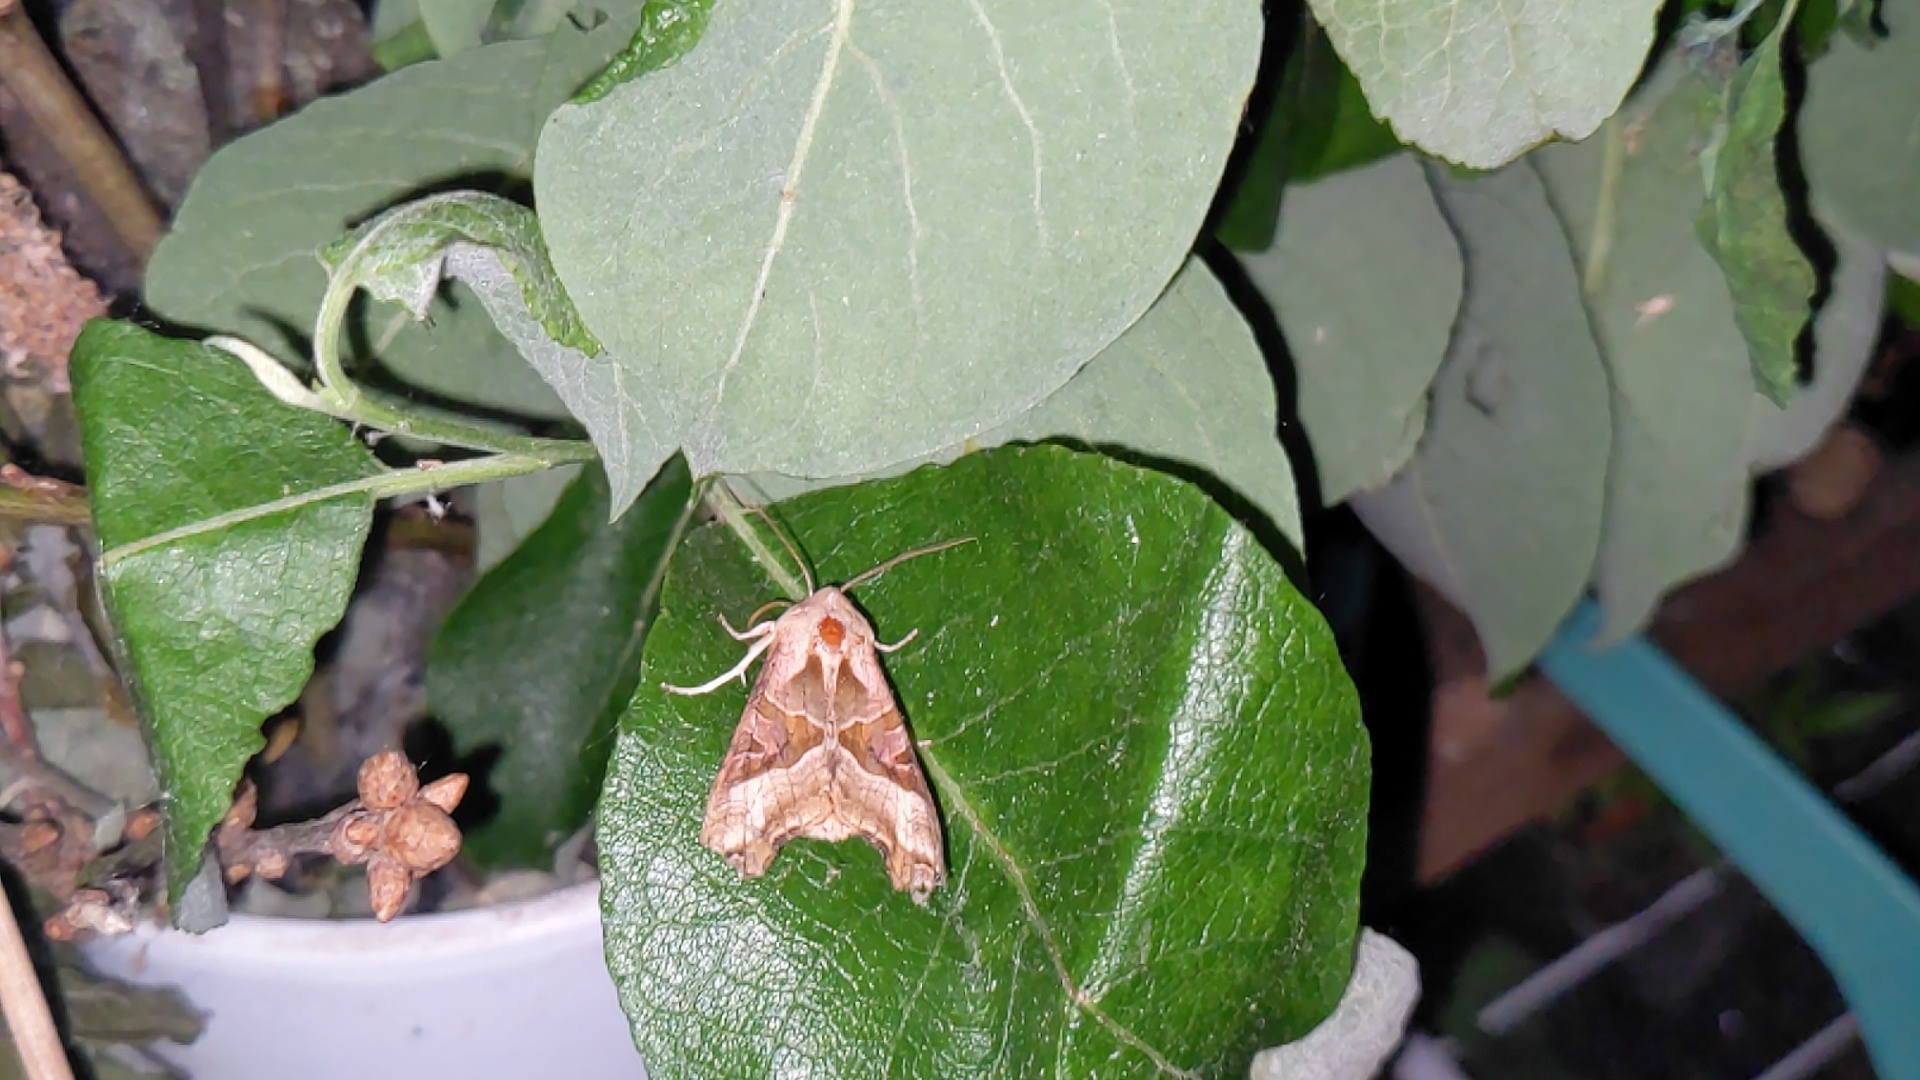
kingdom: Animalia
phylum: Arthropoda
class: Insecta
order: Lepidoptera
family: Noctuidae
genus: Phlogophora
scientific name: Phlogophora meticulosa
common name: Angle shades
